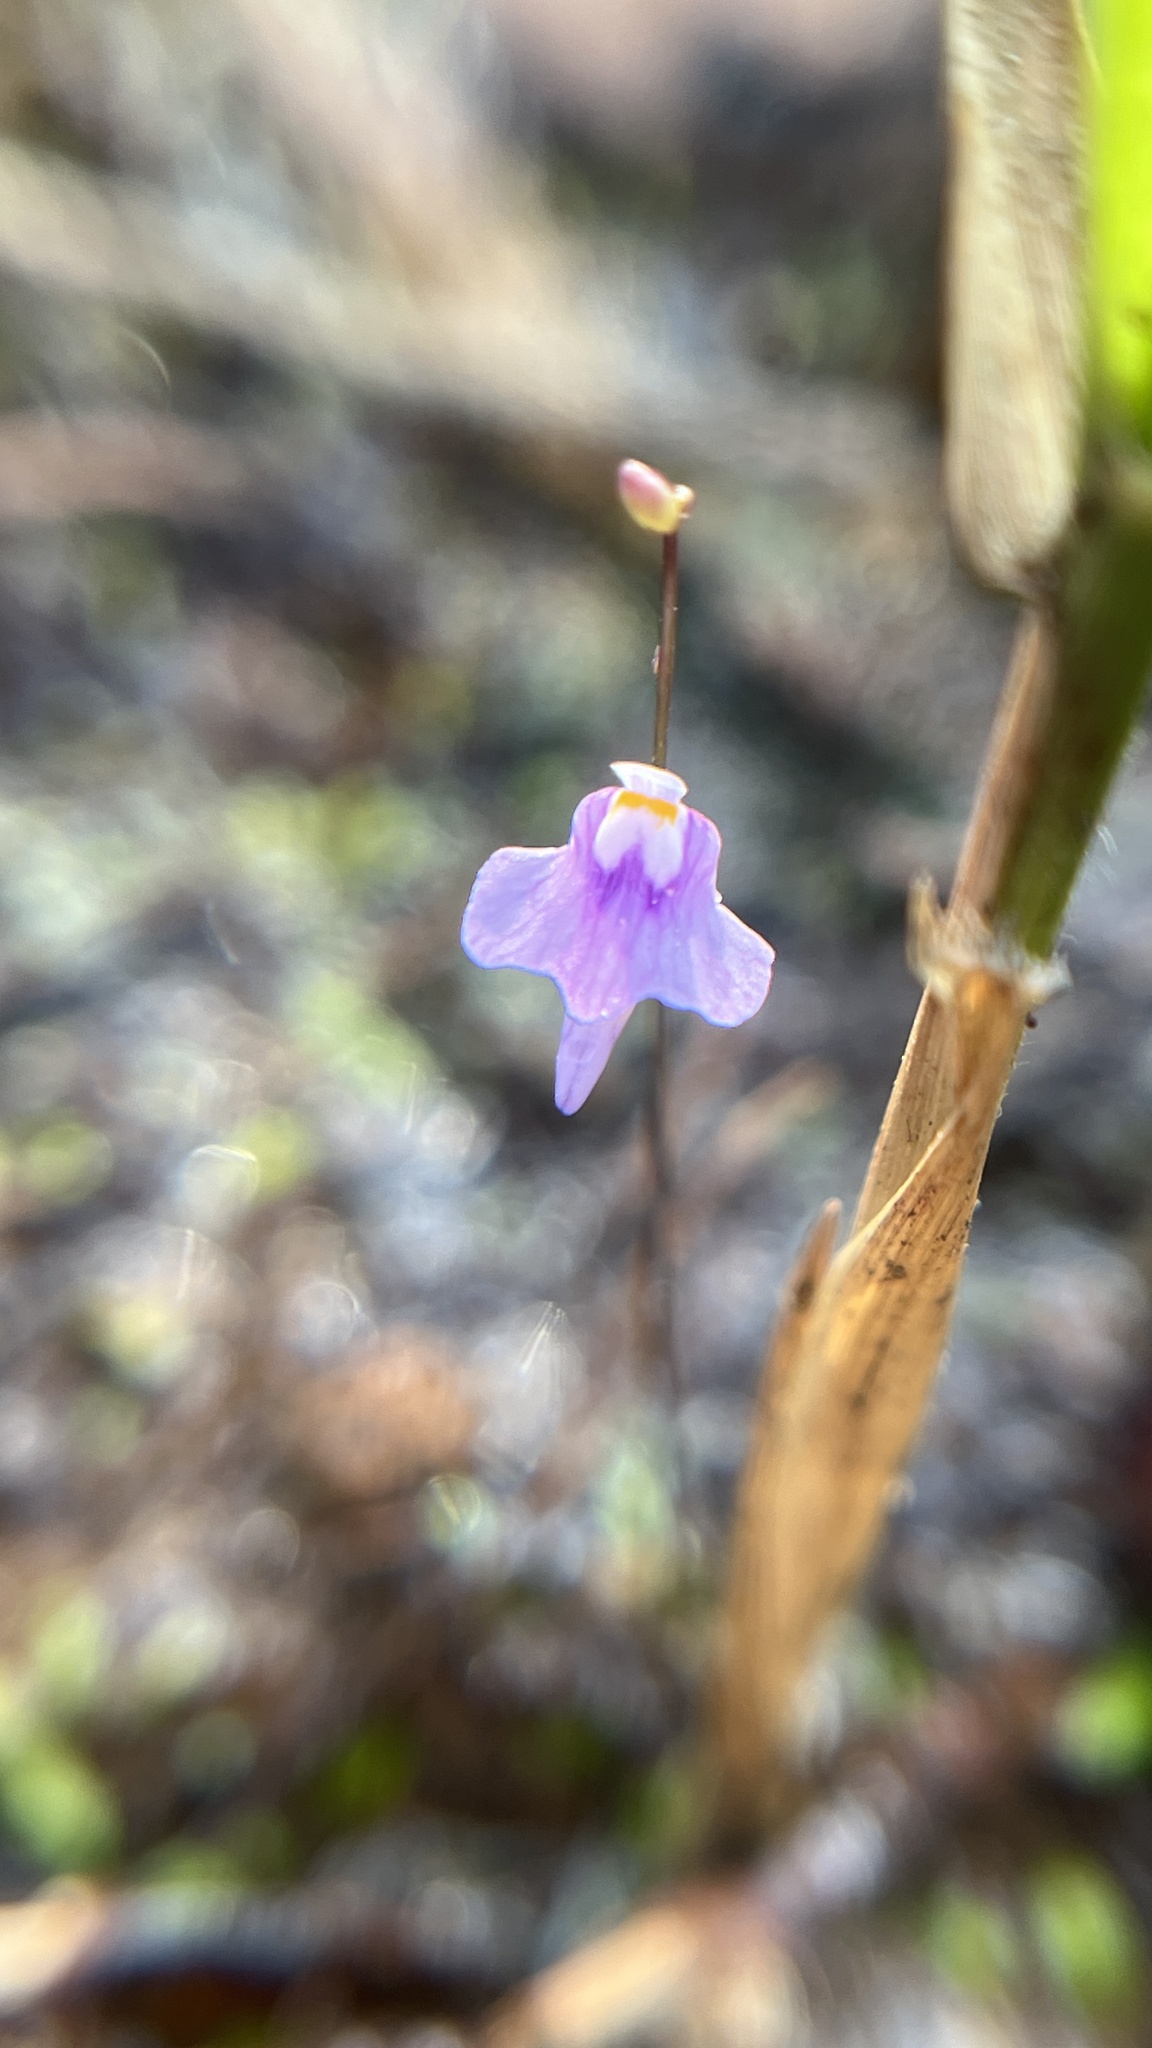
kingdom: Plantae
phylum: Tracheophyta
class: Magnoliopsida
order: Lamiales
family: Lentibulariaceae
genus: Utricularia
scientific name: Utricularia geoffrayi
